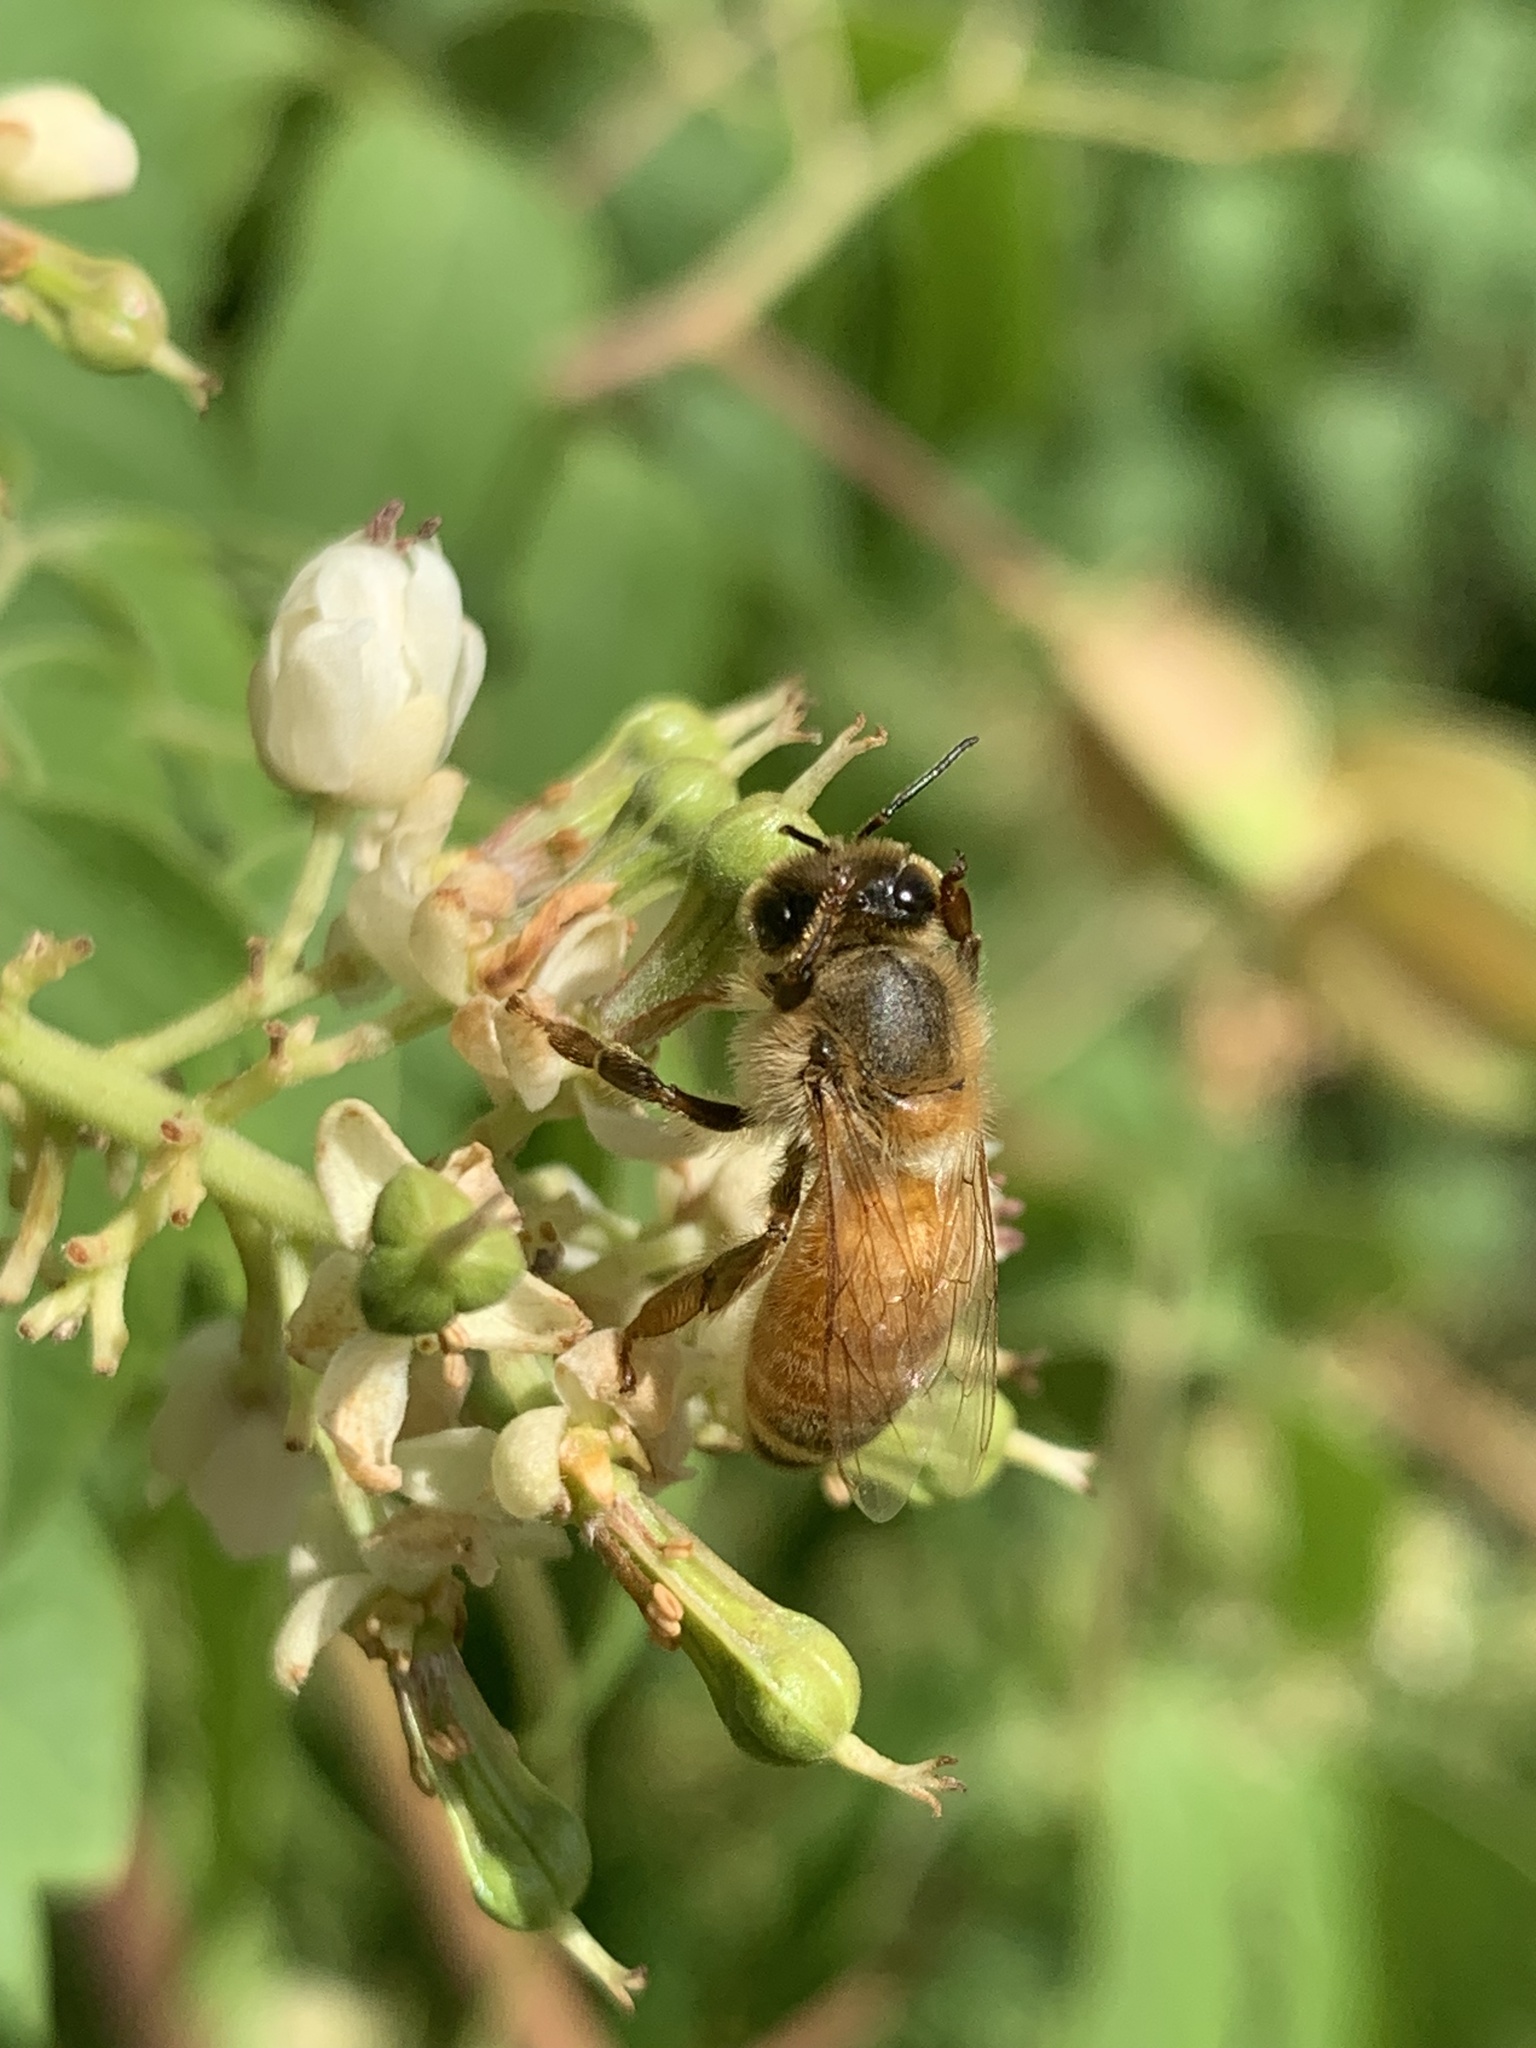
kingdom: Animalia
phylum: Arthropoda
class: Insecta
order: Hymenoptera
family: Apidae
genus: Apis
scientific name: Apis mellifera
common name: Honey bee
